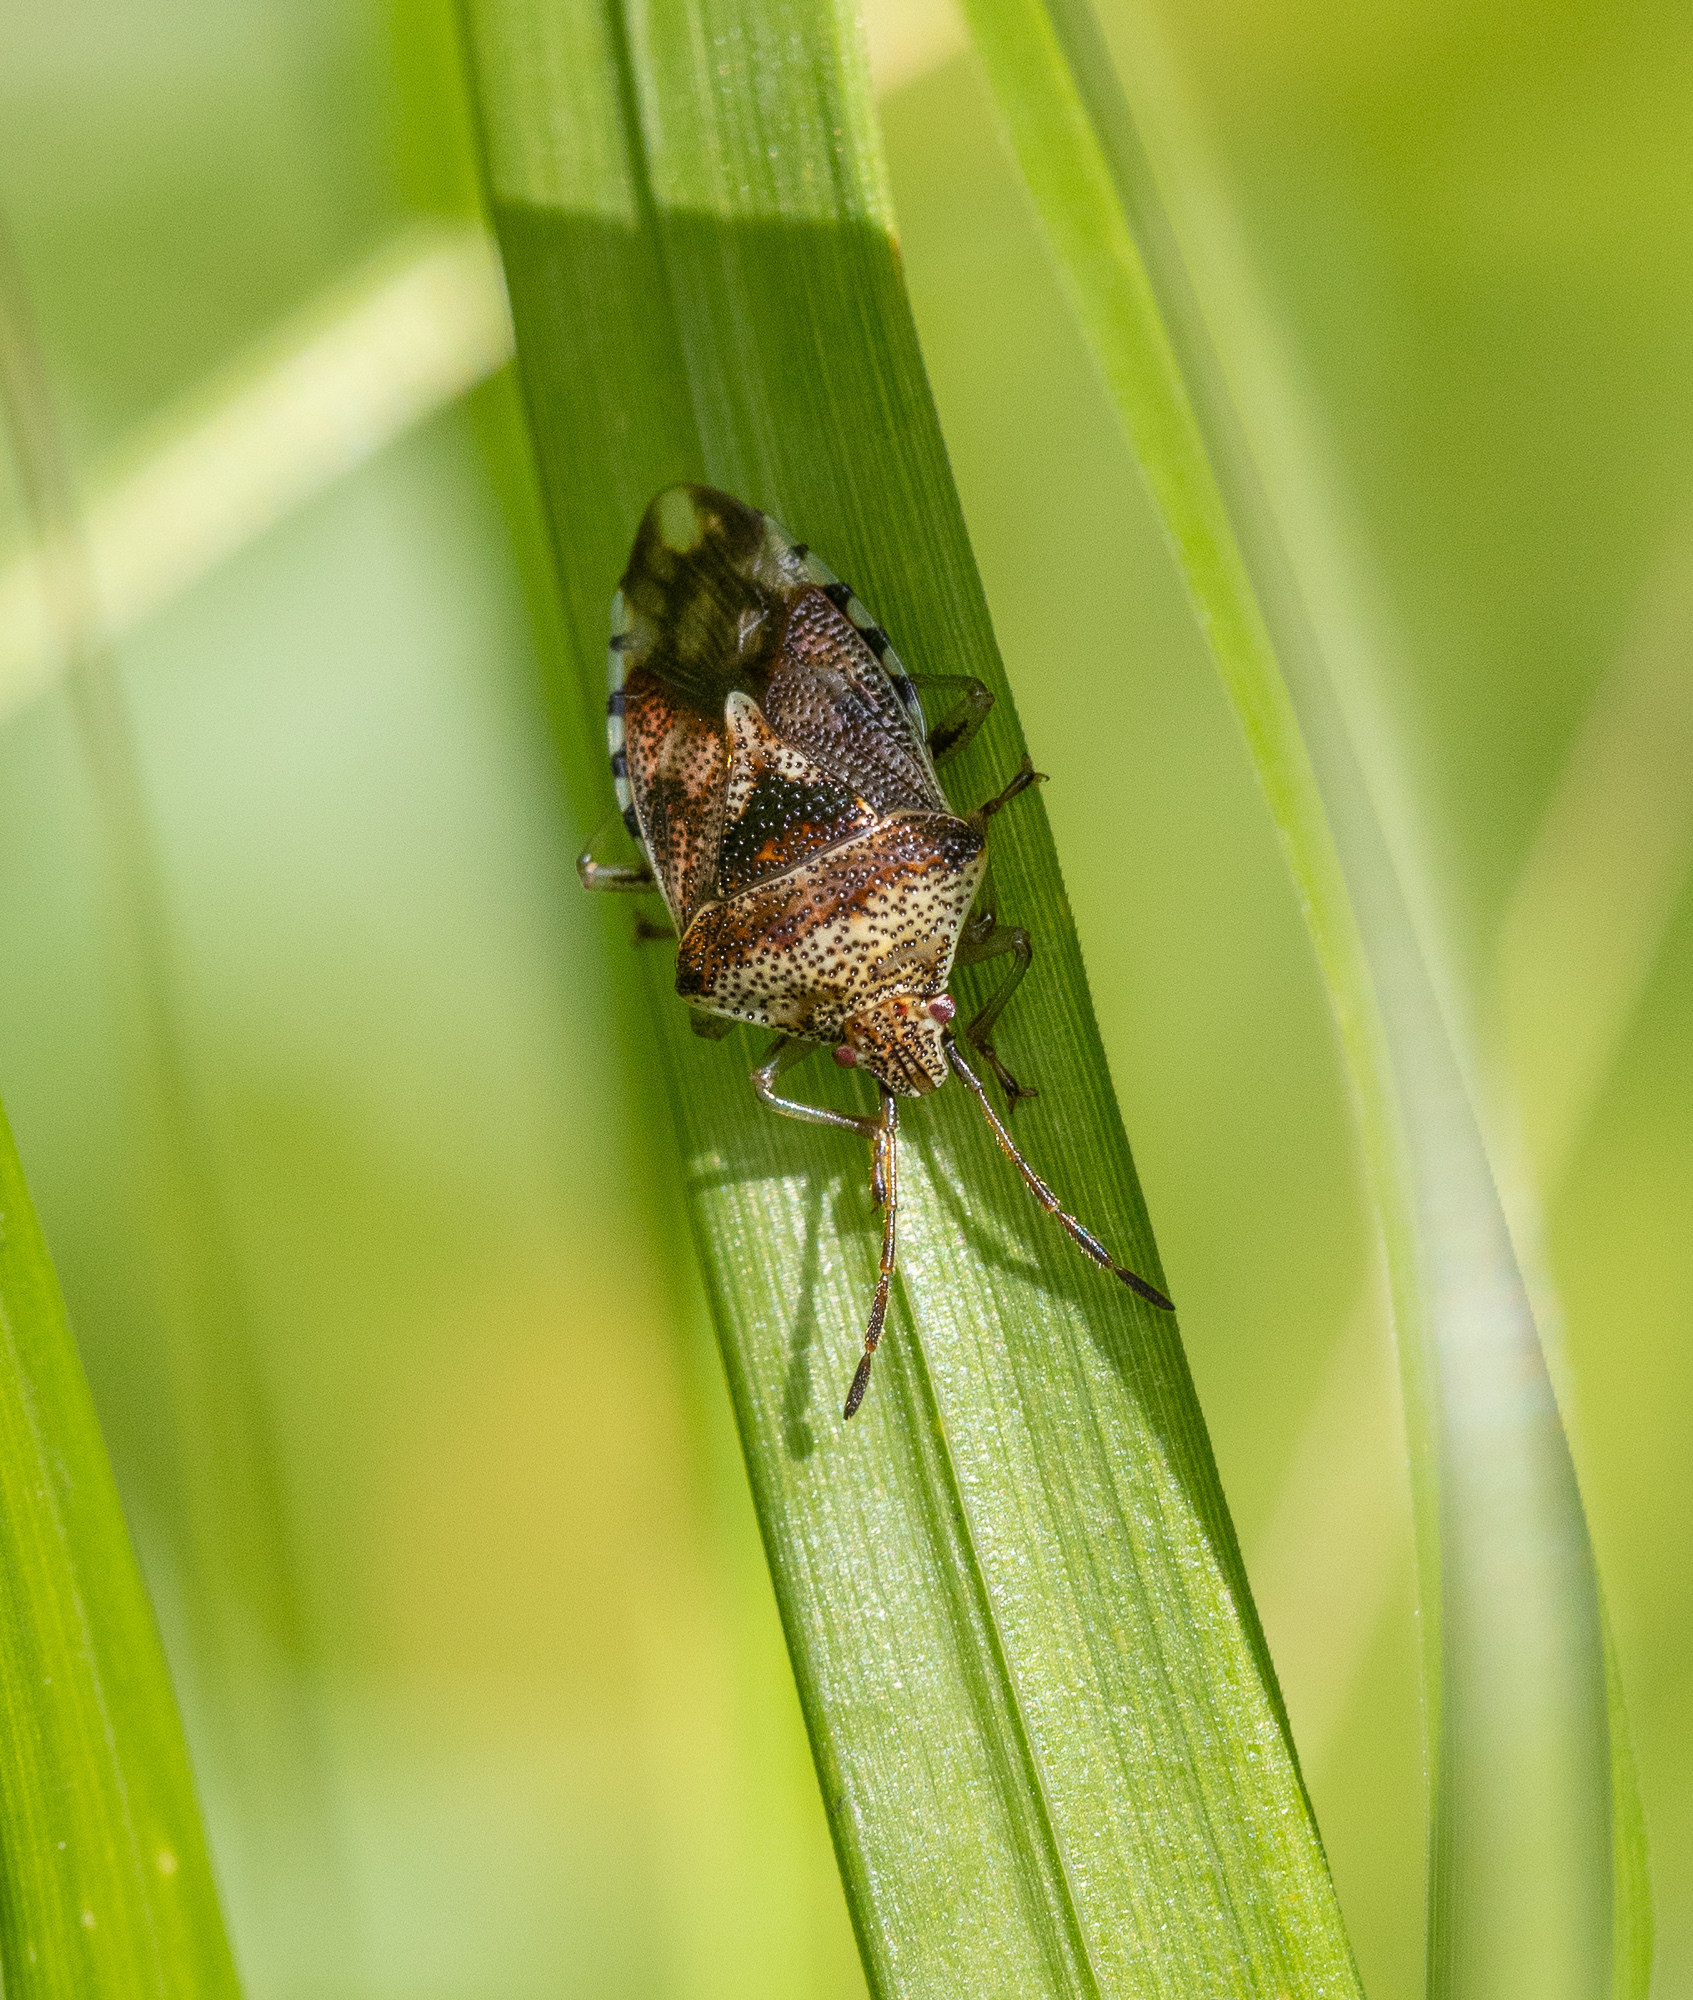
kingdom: Animalia
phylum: Arthropoda
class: Insecta
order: Hemiptera
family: Acanthosomatidae
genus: Elasmucha
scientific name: Elasmucha grisea
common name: Parent bug
